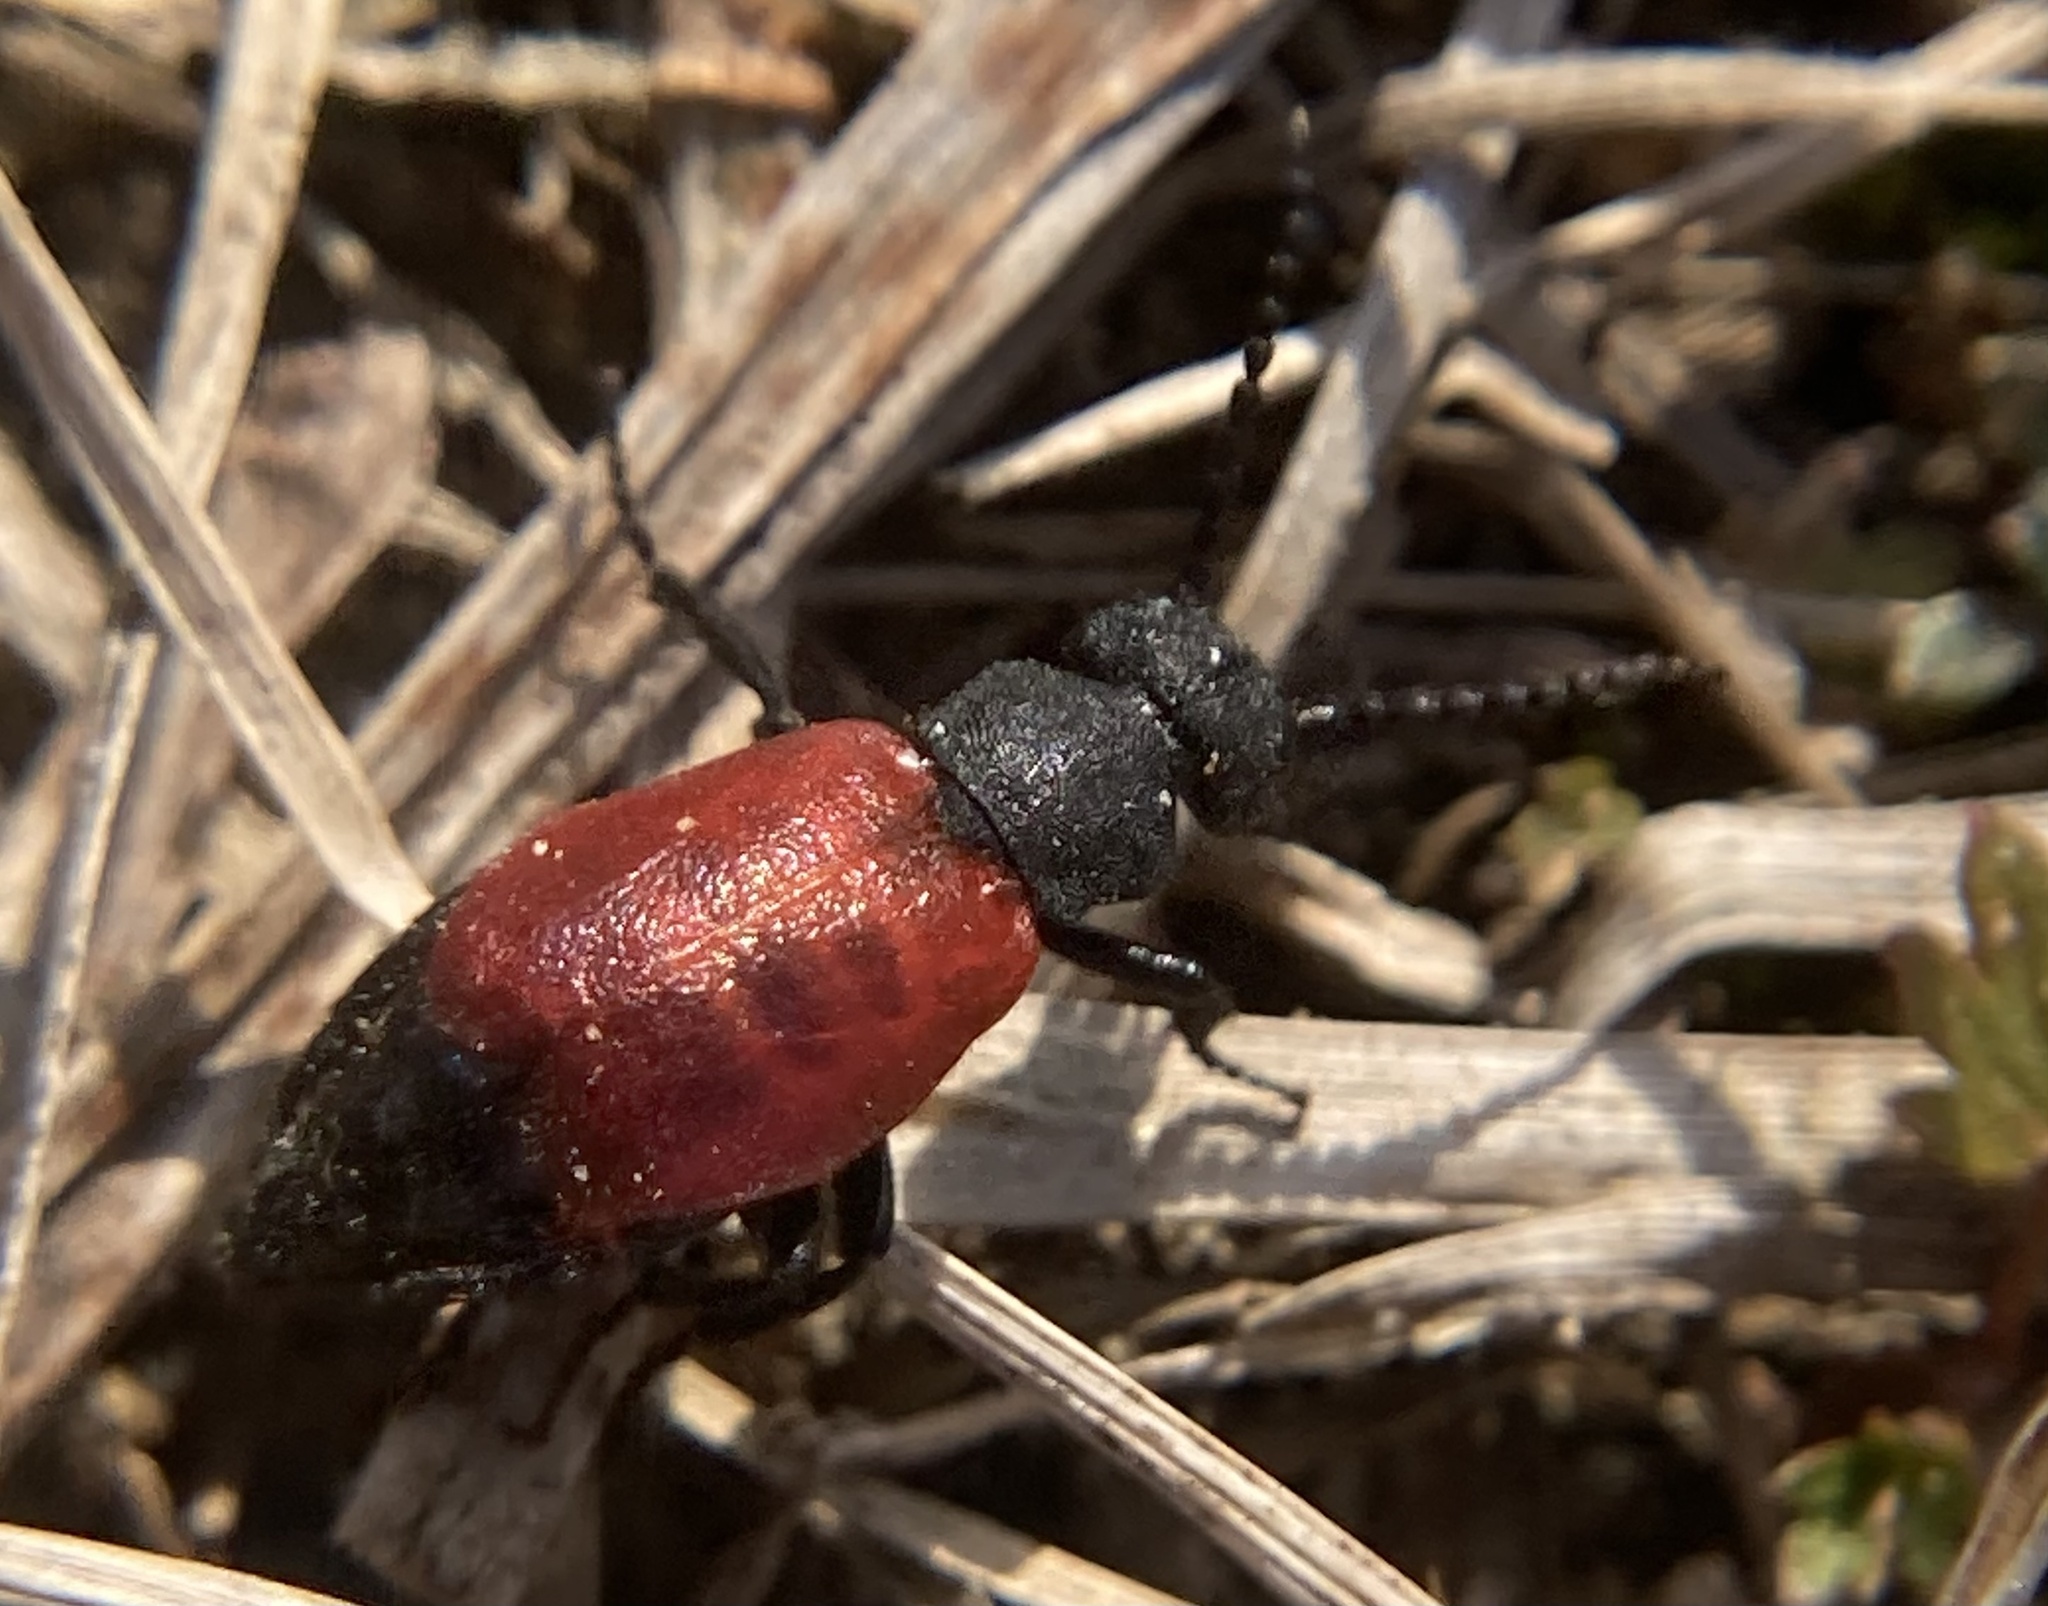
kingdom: Animalia
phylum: Arthropoda
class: Insecta
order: Coleoptera
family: Meloidae
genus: Tricrania
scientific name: Tricrania sanguinipennis
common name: Blood-winged blister beetle
